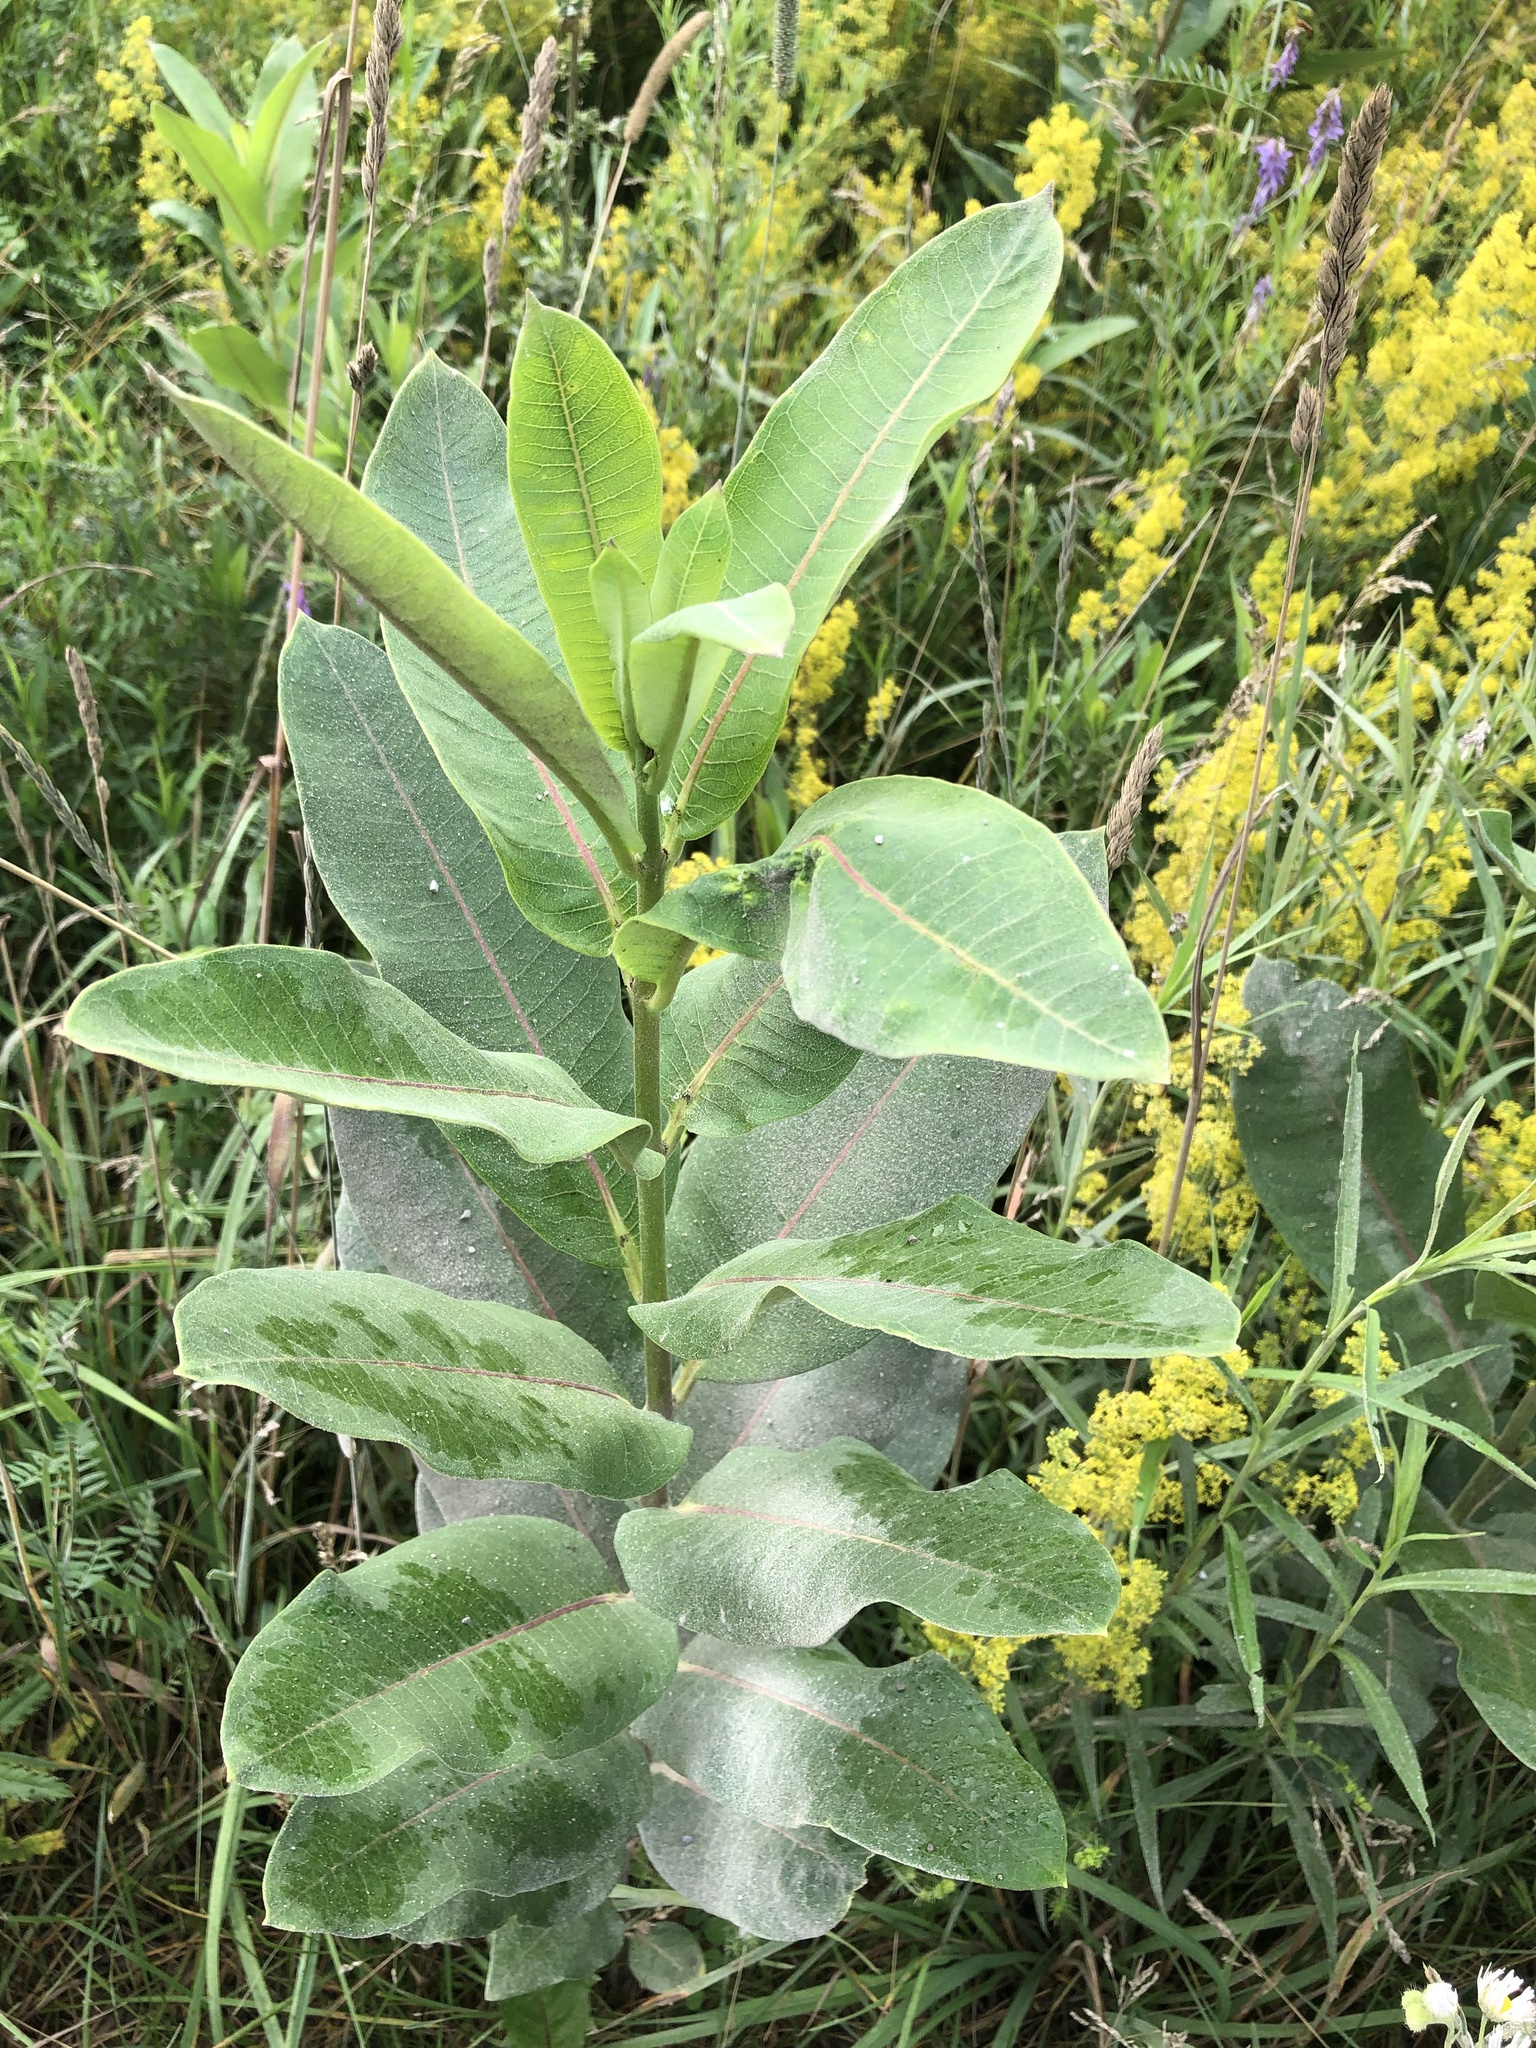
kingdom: Plantae
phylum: Tracheophyta
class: Magnoliopsida
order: Gentianales
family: Apocynaceae
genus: Asclepias
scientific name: Asclepias syriaca
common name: Common milkweed
